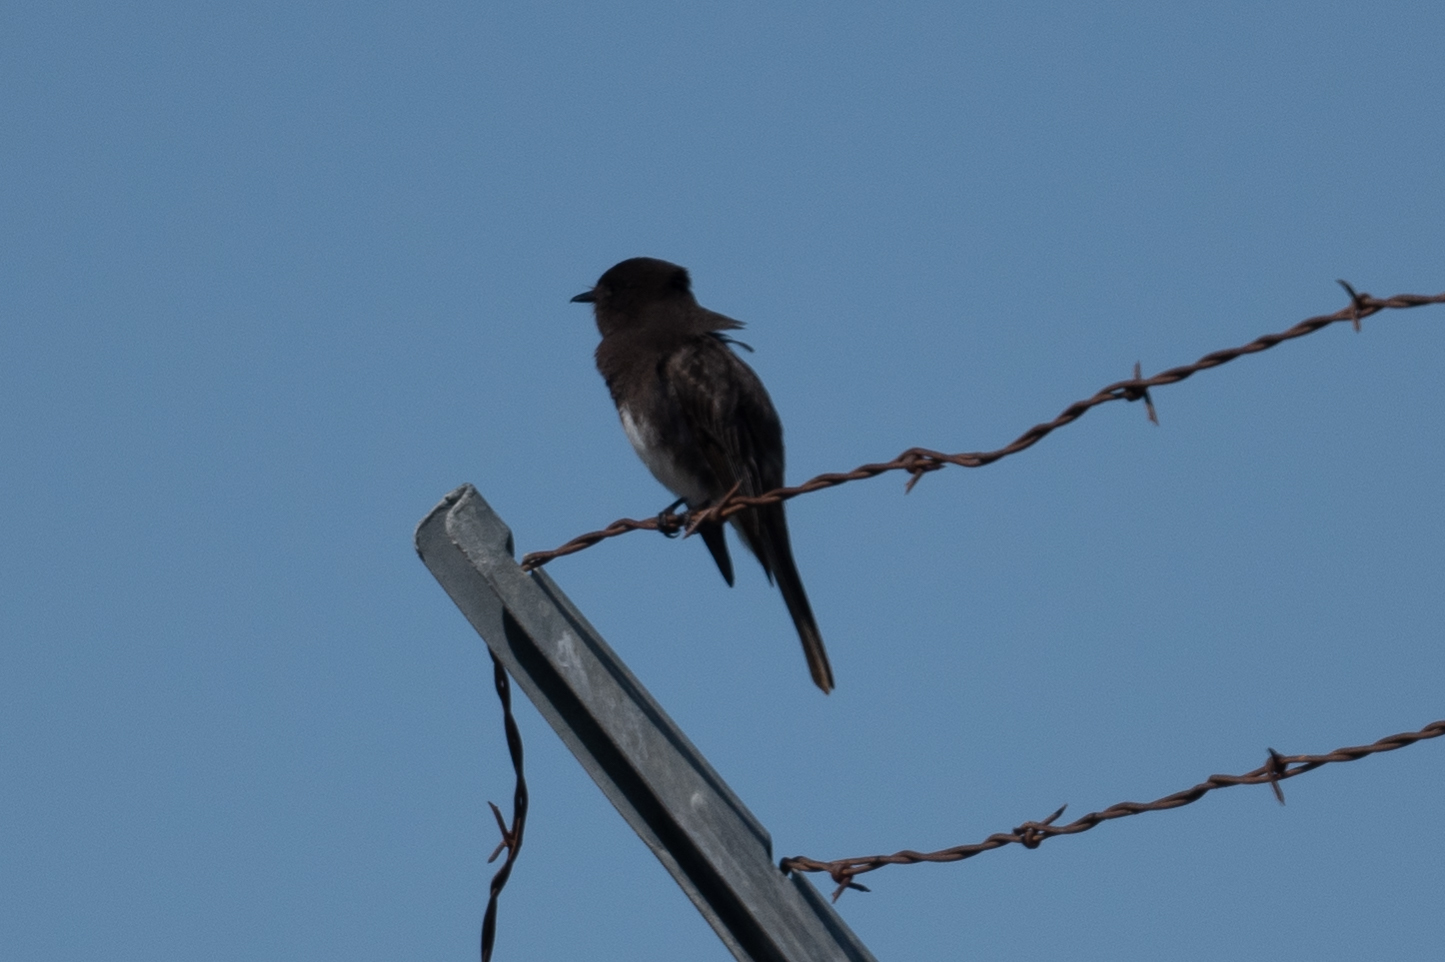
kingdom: Animalia
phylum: Chordata
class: Aves
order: Passeriformes
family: Tyrannidae
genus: Sayornis
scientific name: Sayornis nigricans
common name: Black phoebe
